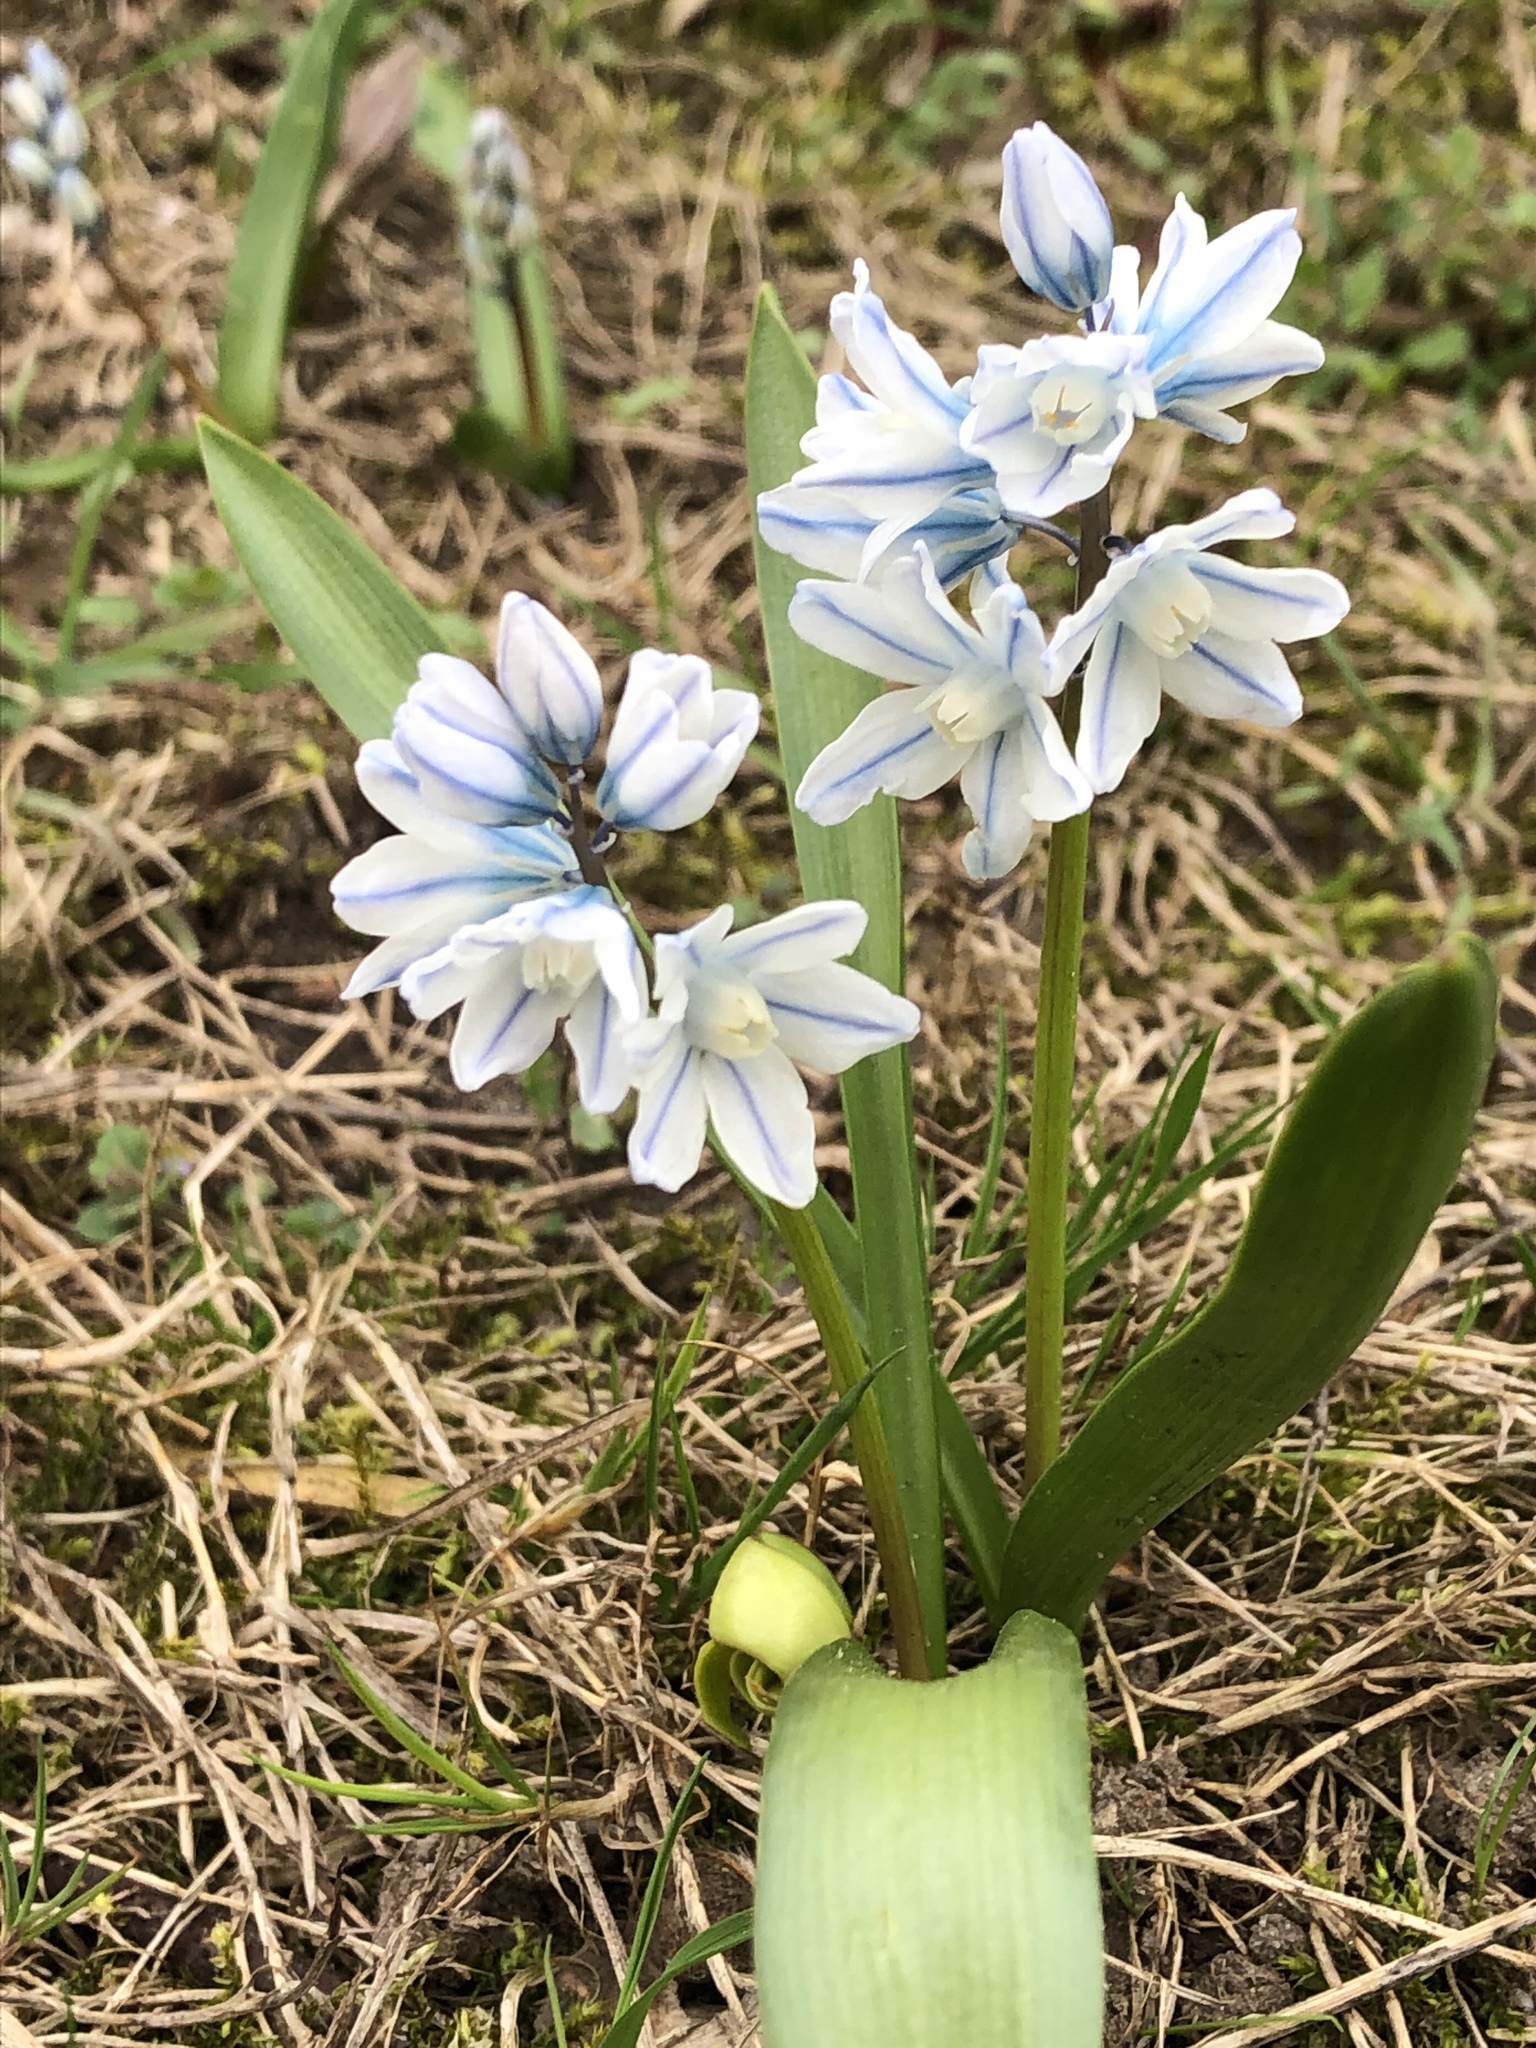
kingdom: Plantae
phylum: Tracheophyta
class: Liliopsida
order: Asparagales
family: Asparagaceae
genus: Puschkinia
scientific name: Puschkinia scilloides
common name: Striped squill
